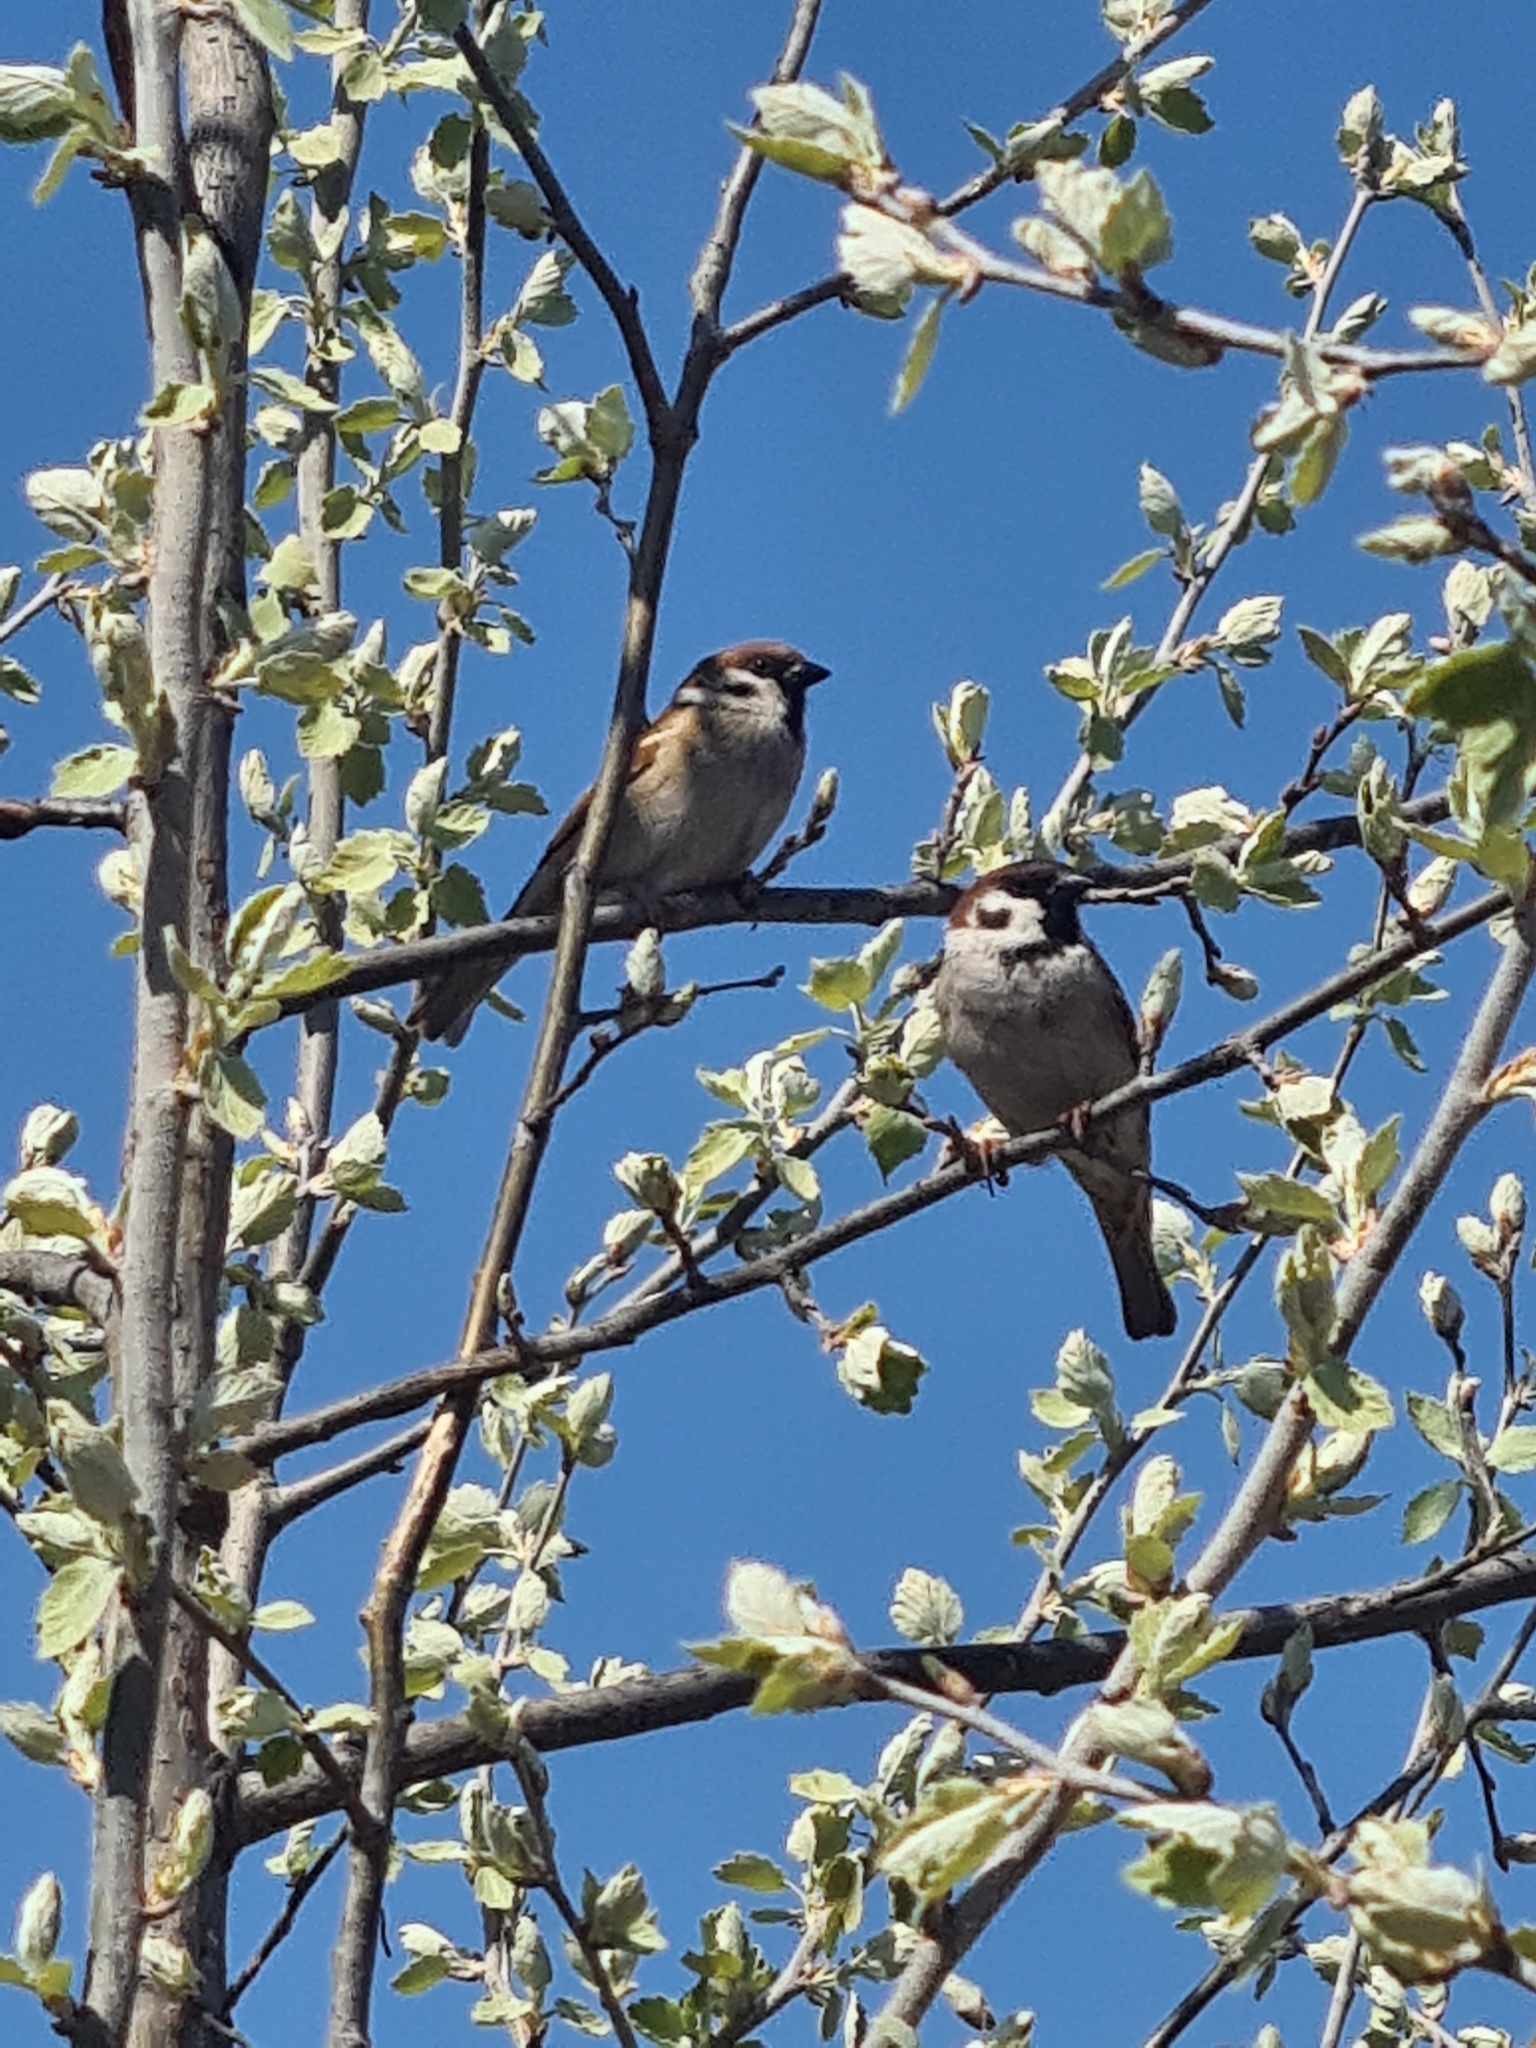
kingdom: Animalia
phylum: Chordata
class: Aves
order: Passeriformes
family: Passeridae
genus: Passer
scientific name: Passer montanus
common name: Eurasian tree sparrow
